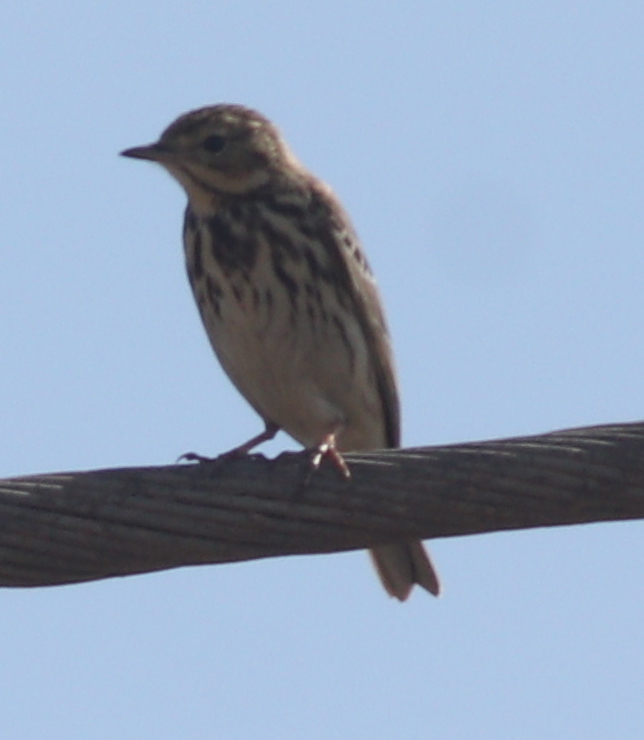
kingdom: Animalia
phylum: Chordata
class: Aves
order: Passeriformes
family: Motacillidae
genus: Anthus
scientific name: Anthus cervinus
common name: Red-throated pipit
